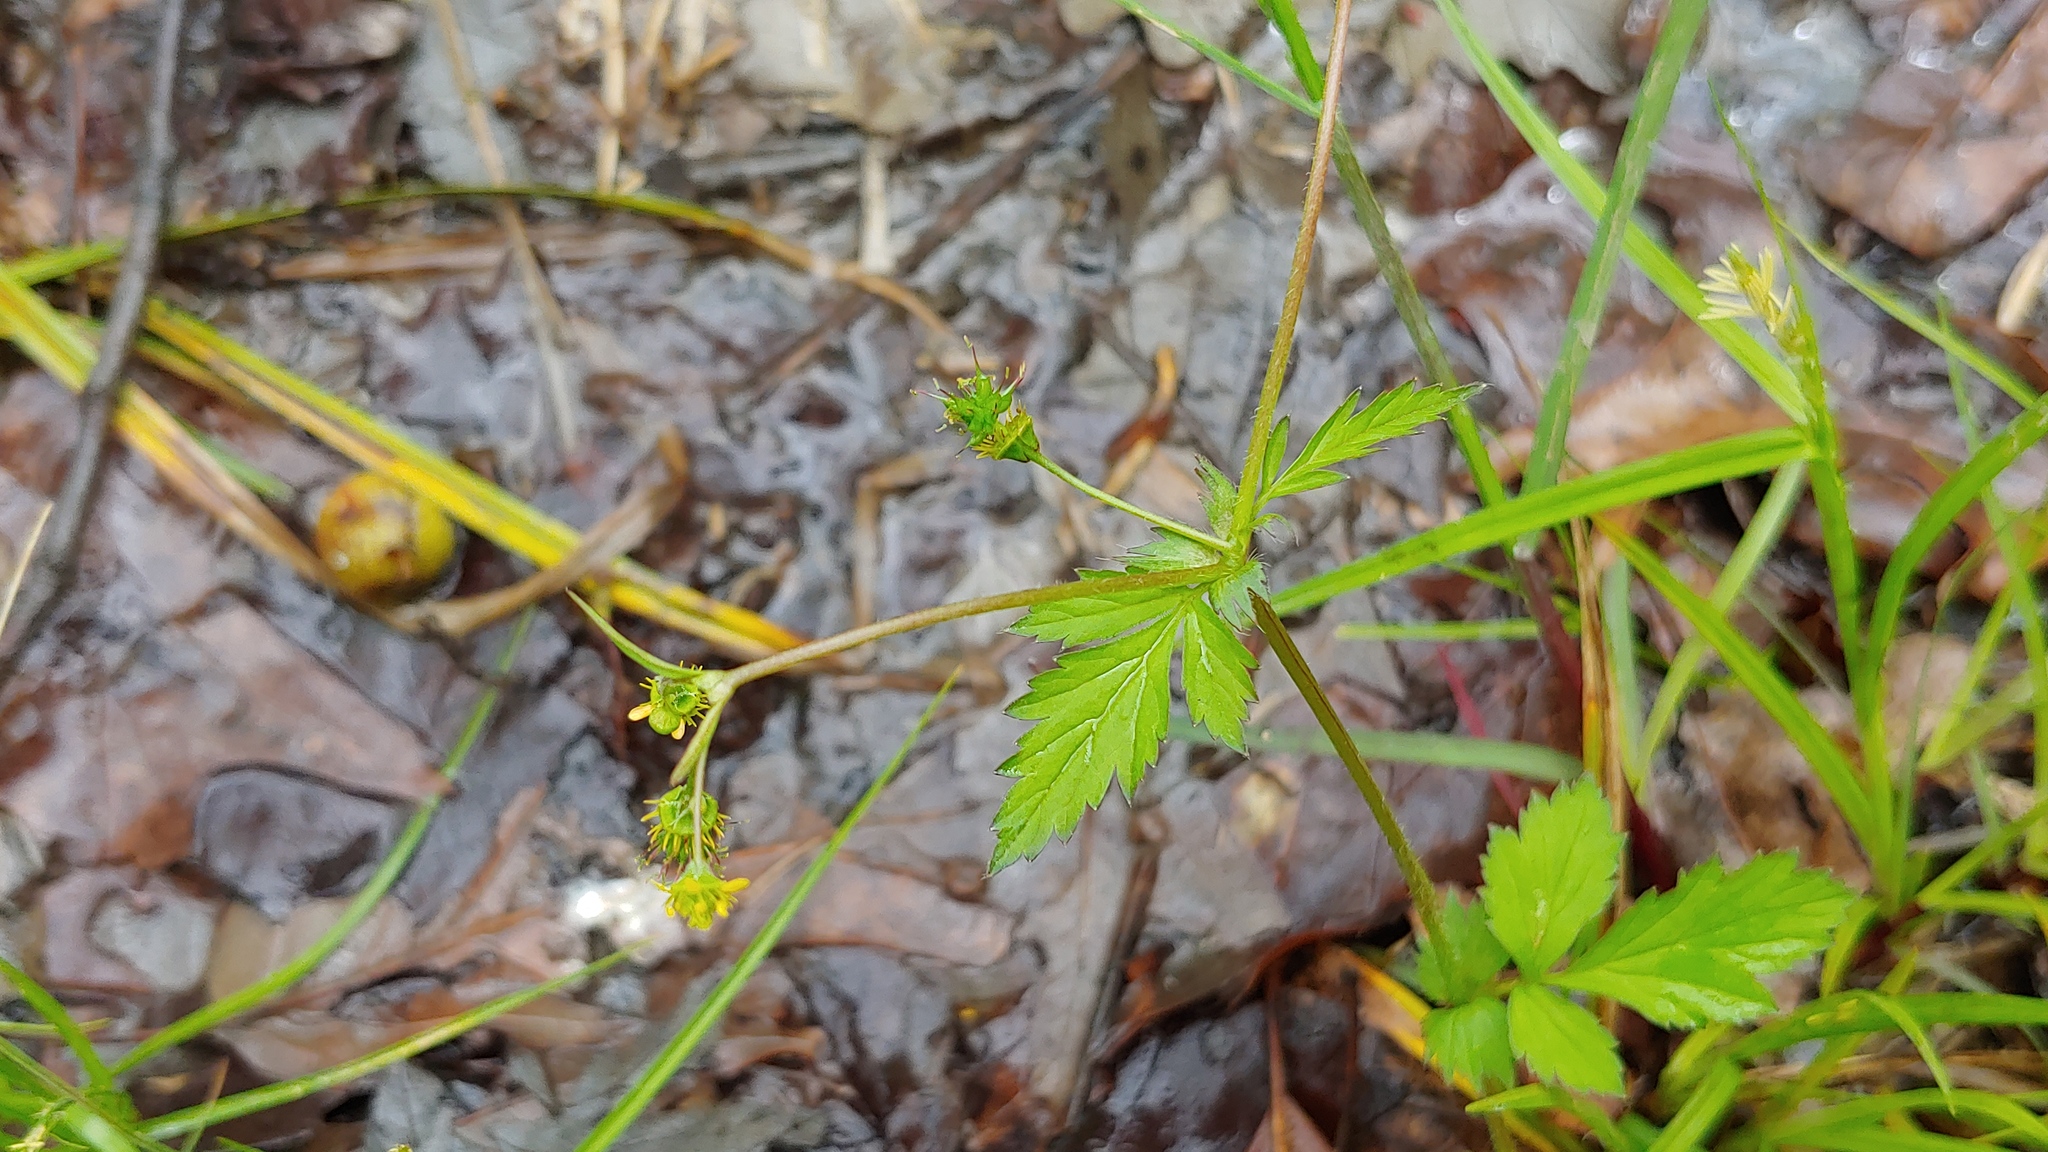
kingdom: Plantae
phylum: Tracheophyta
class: Magnoliopsida
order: Rosales
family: Rosaceae
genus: Geum
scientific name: Geum vernum
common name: Spring avens
